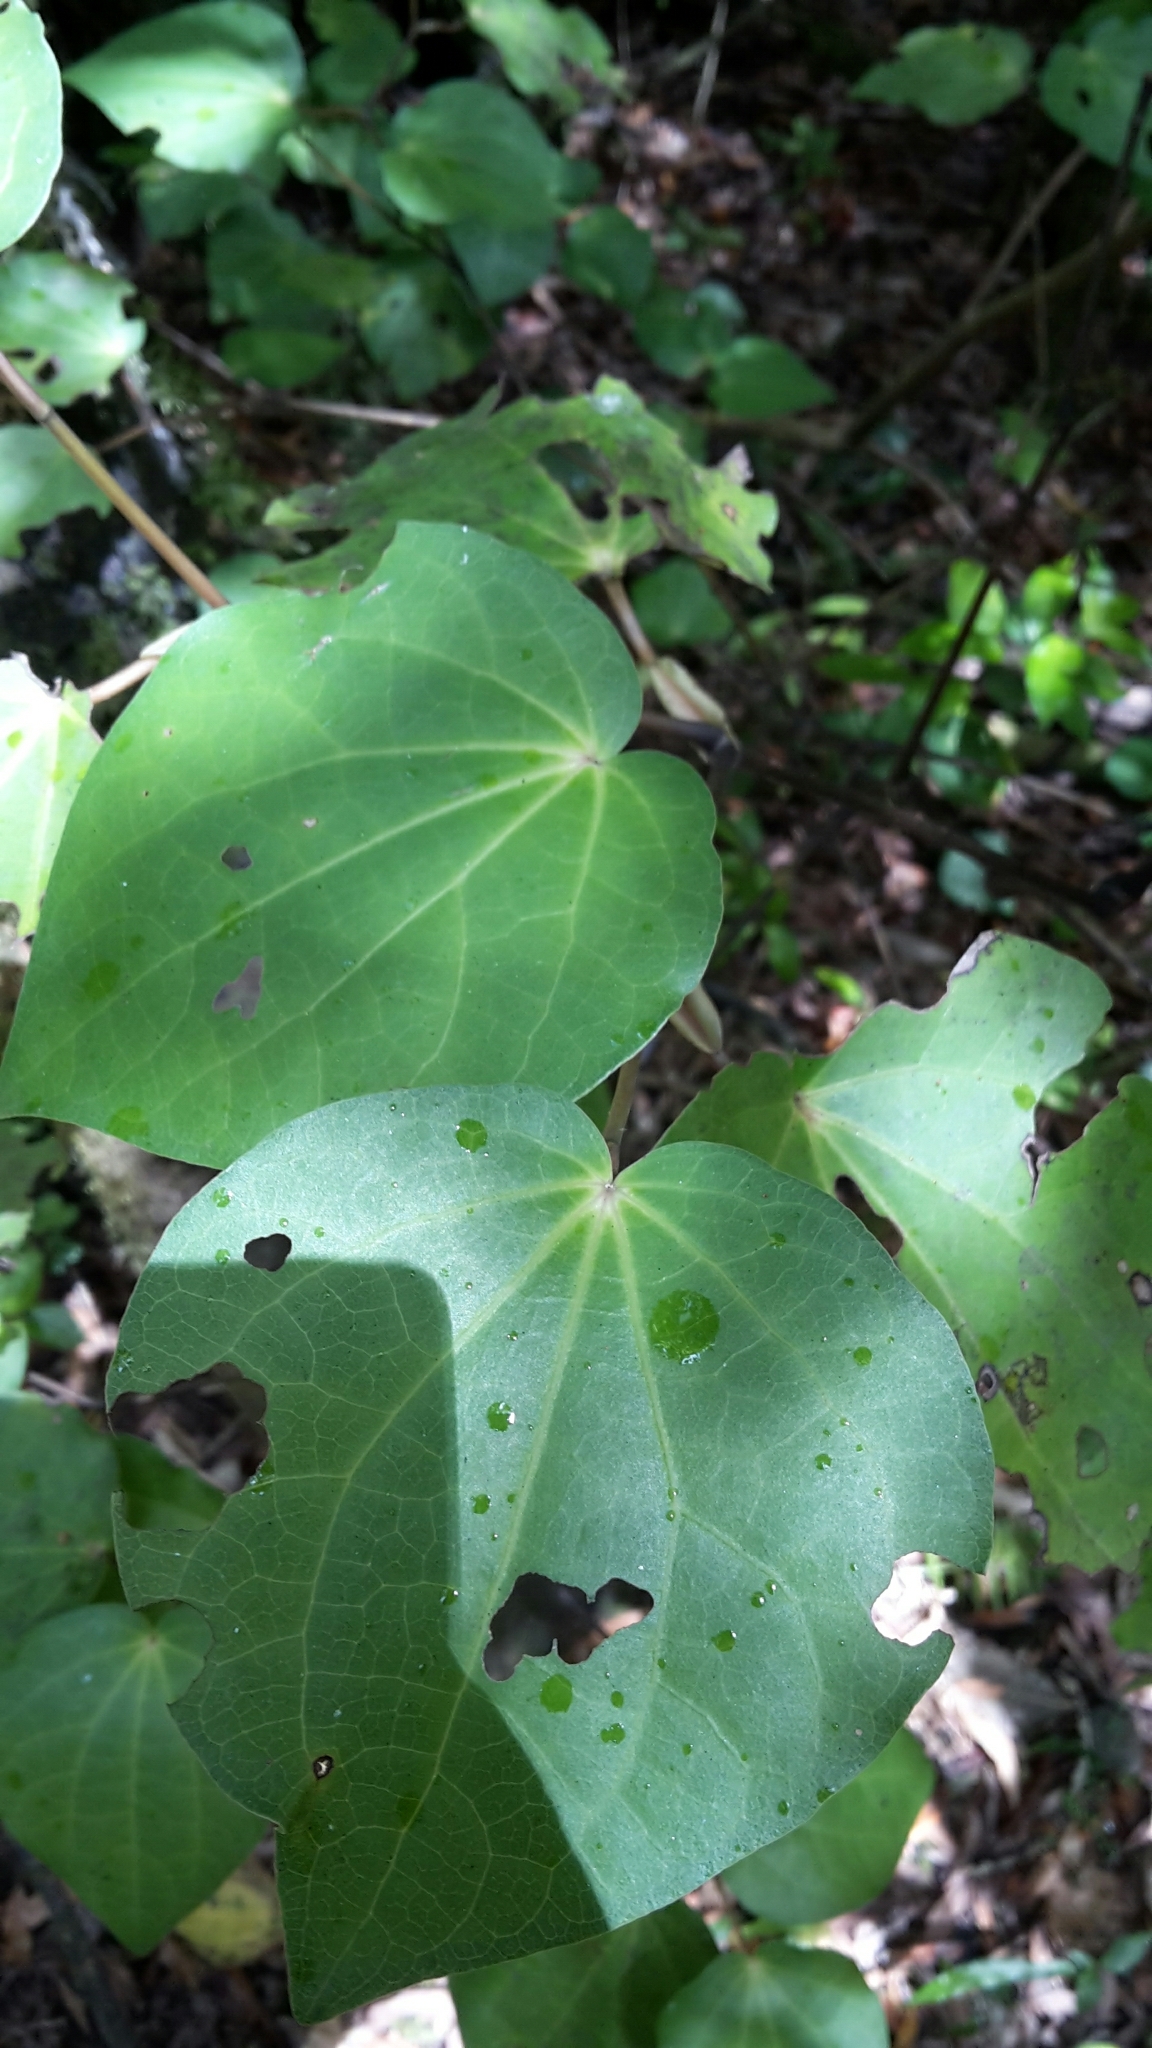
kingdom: Plantae
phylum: Tracheophyta
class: Magnoliopsida
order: Piperales
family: Piperaceae
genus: Macropiper
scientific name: Macropiper excelsum
